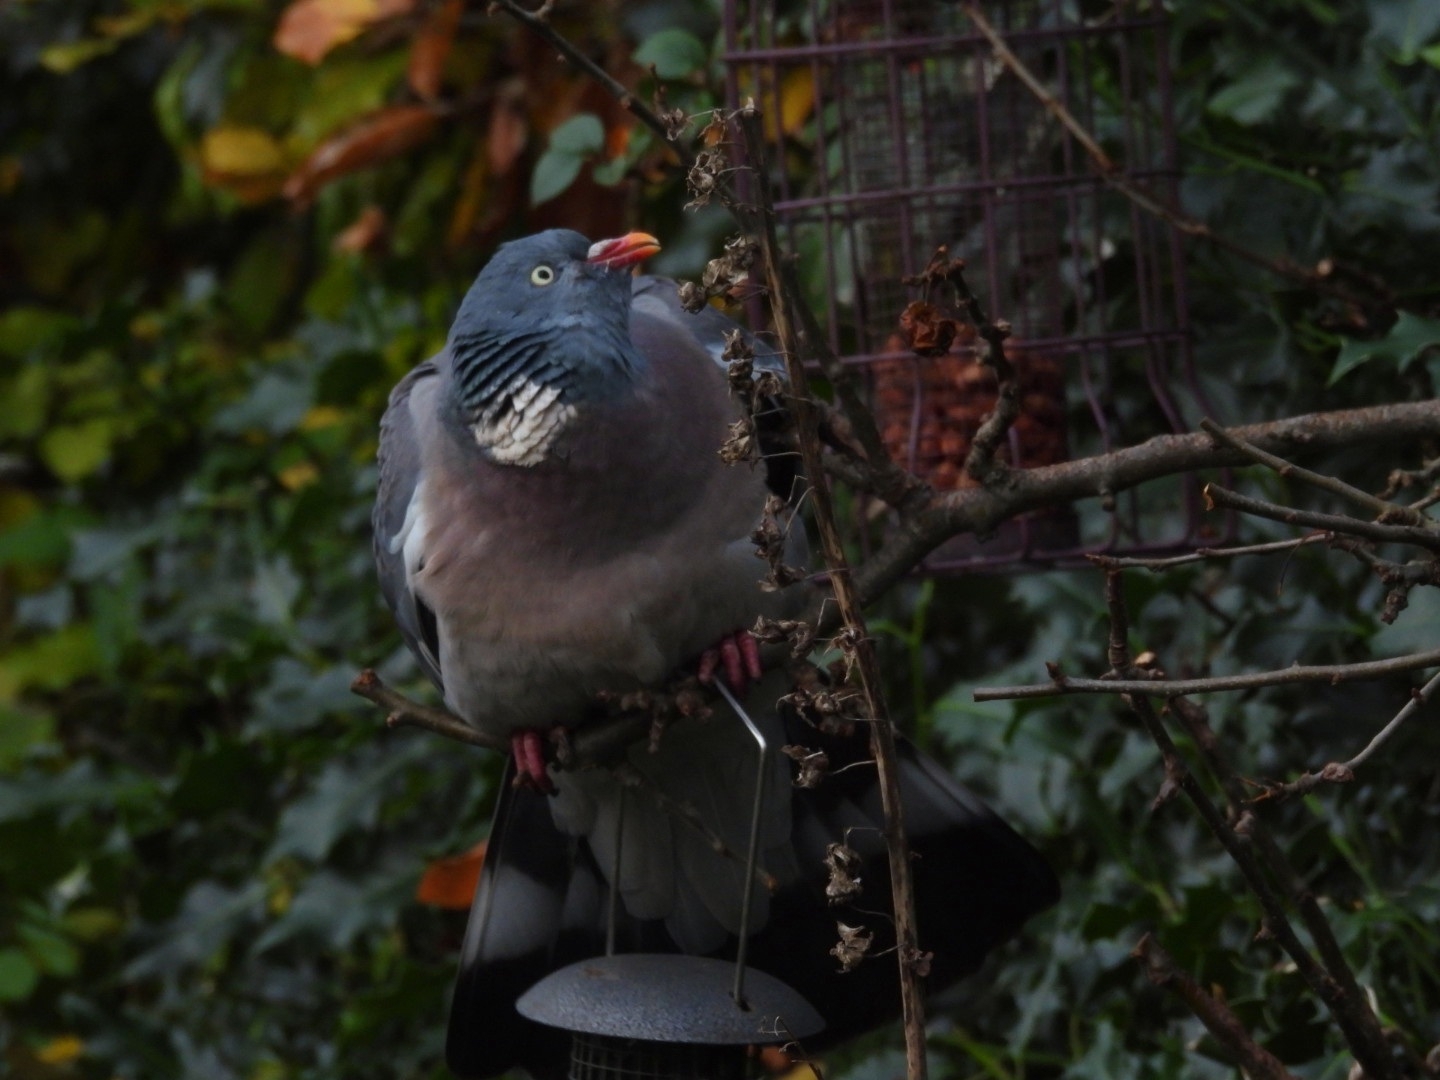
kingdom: Animalia
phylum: Chordata
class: Aves
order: Columbiformes
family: Columbidae
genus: Columba
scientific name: Columba palumbus
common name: Common wood pigeon
